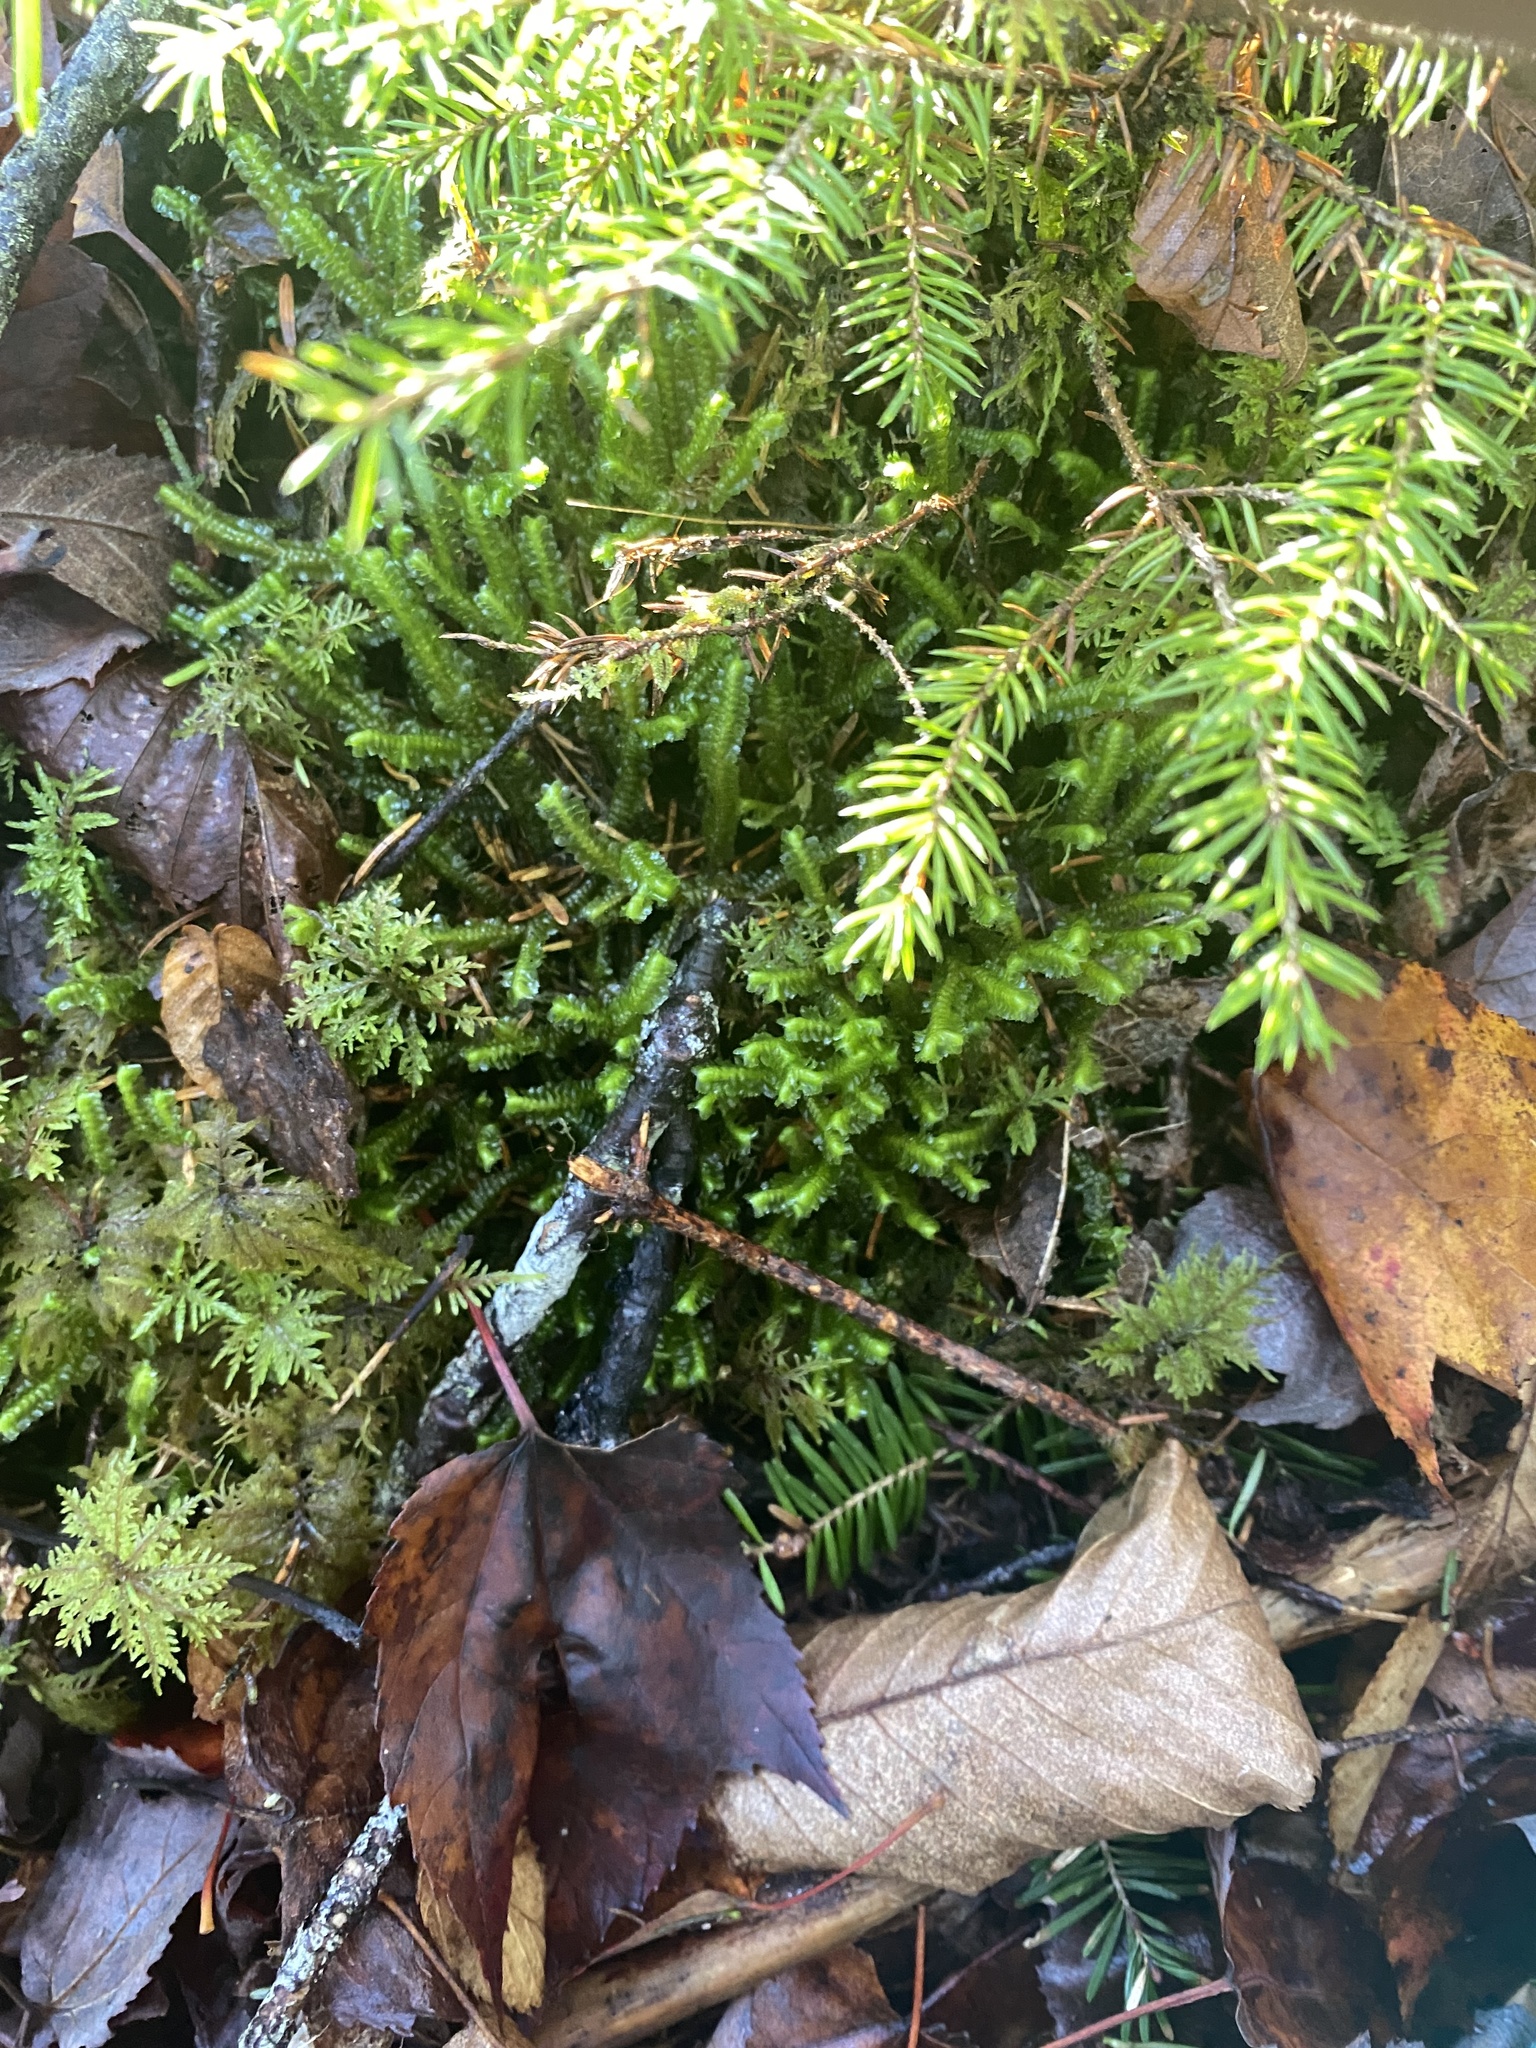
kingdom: Plantae
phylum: Marchantiophyta
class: Jungermanniopsida
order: Jungermanniales
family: Lepidoziaceae
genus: Bazzania
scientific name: Bazzania trilobata
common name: Three-lobed whipwort
